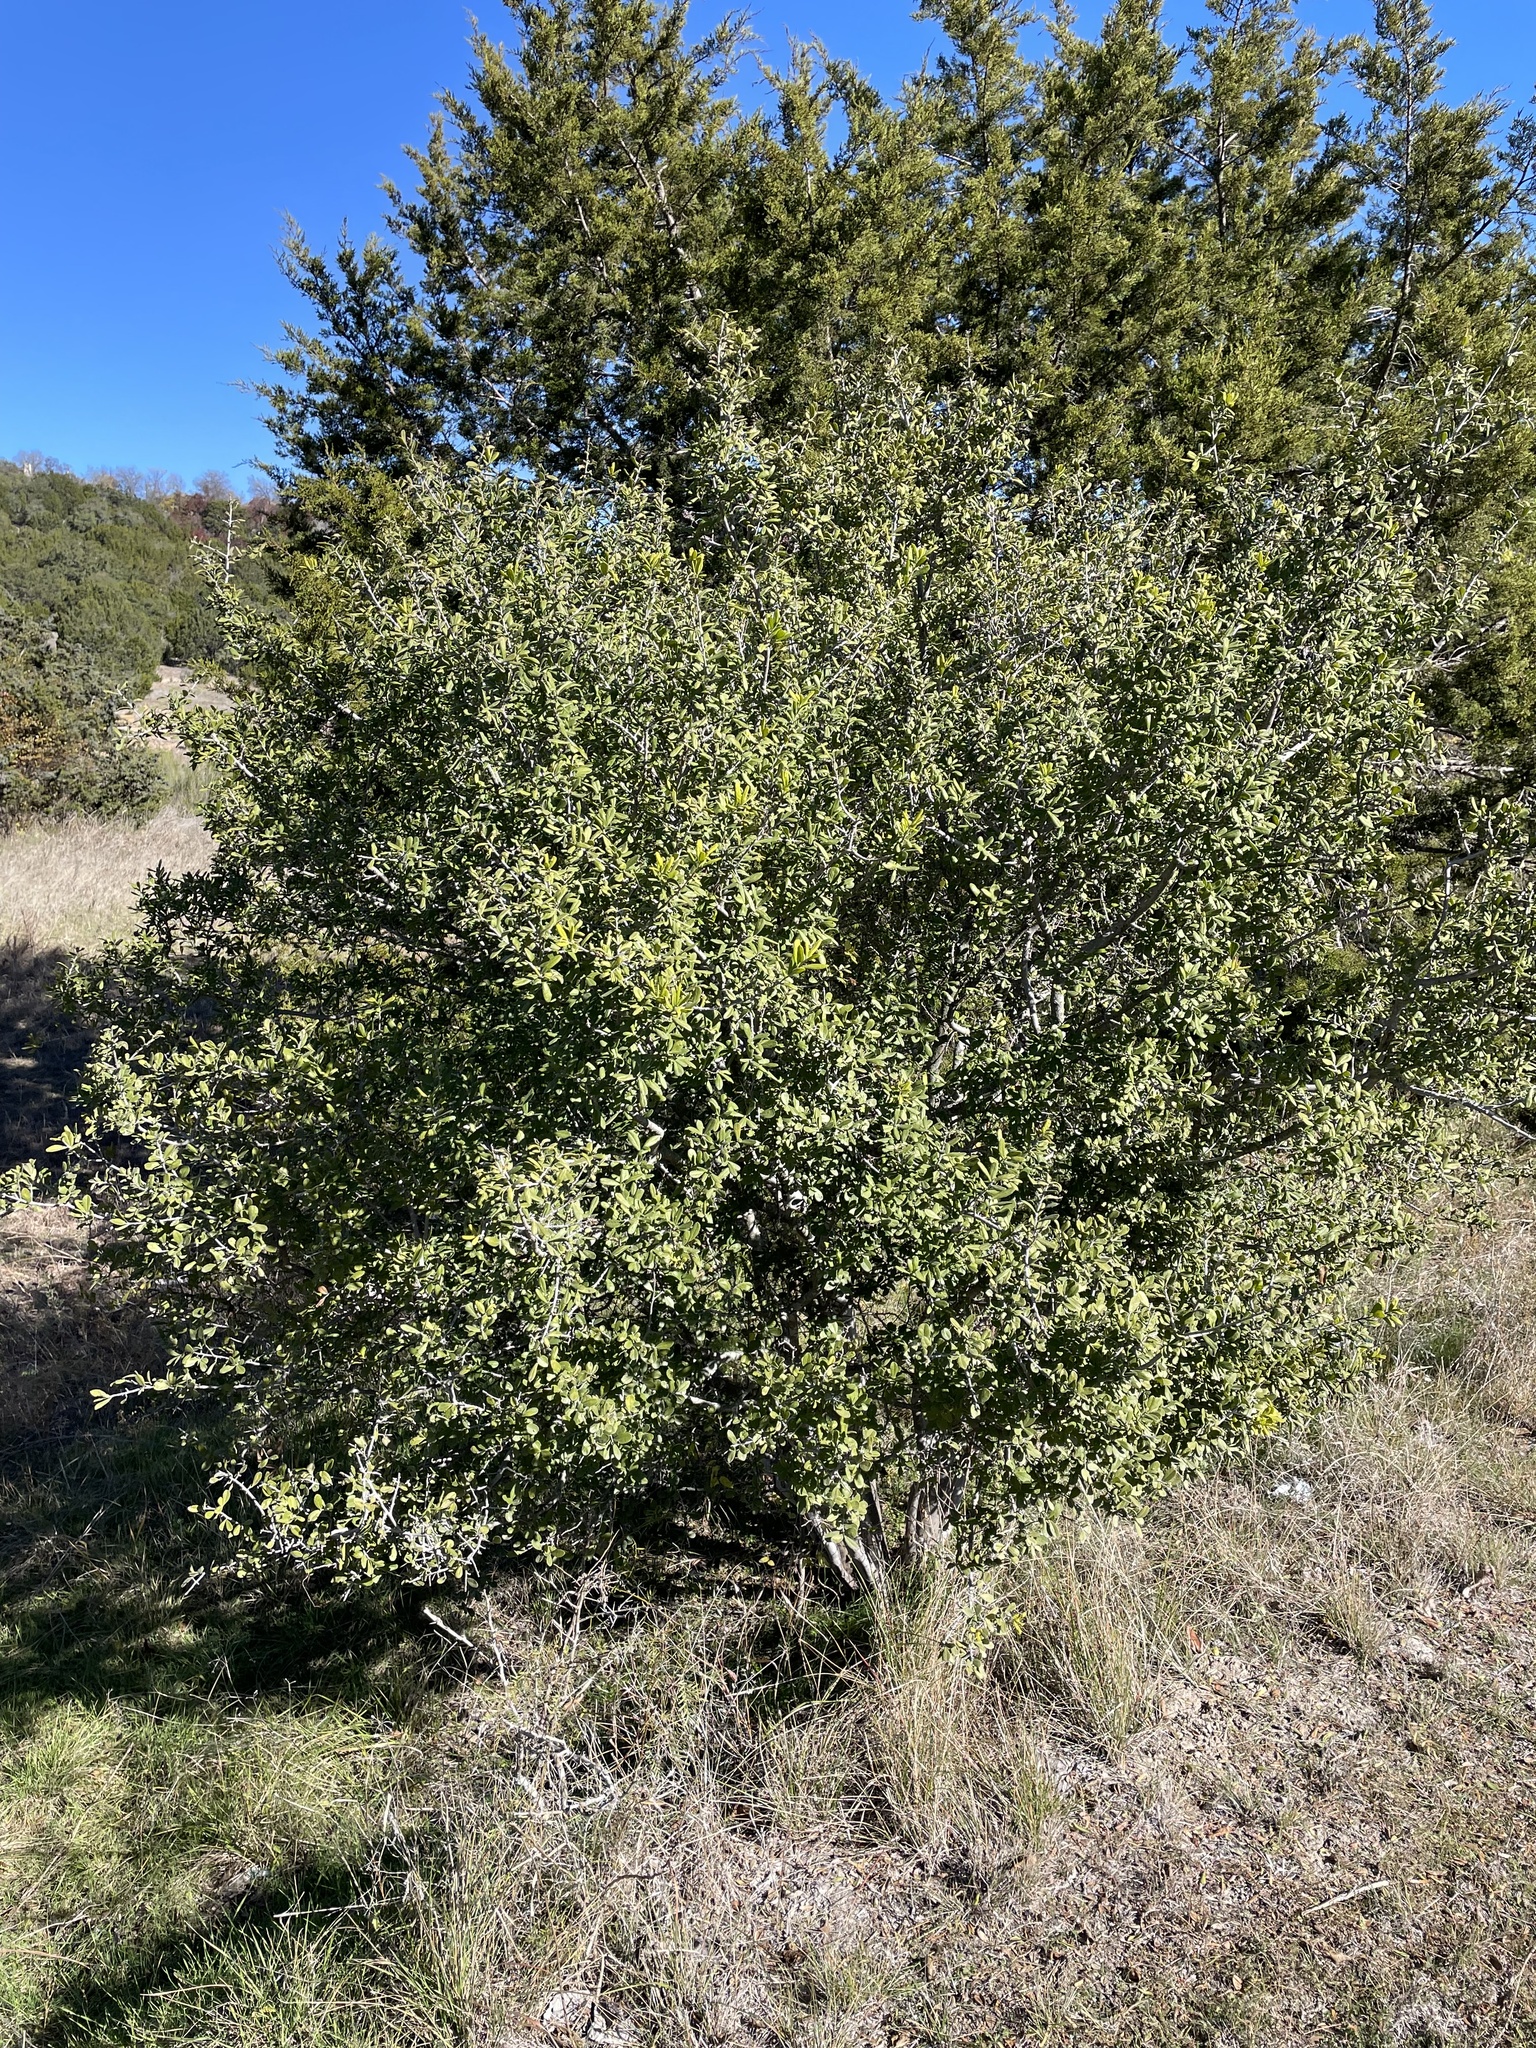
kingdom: Plantae
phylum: Tracheophyta
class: Magnoliopsida
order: Ericales
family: Ebenaceae
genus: Diospyros
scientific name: Diospyros texana
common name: Texas persimmon
